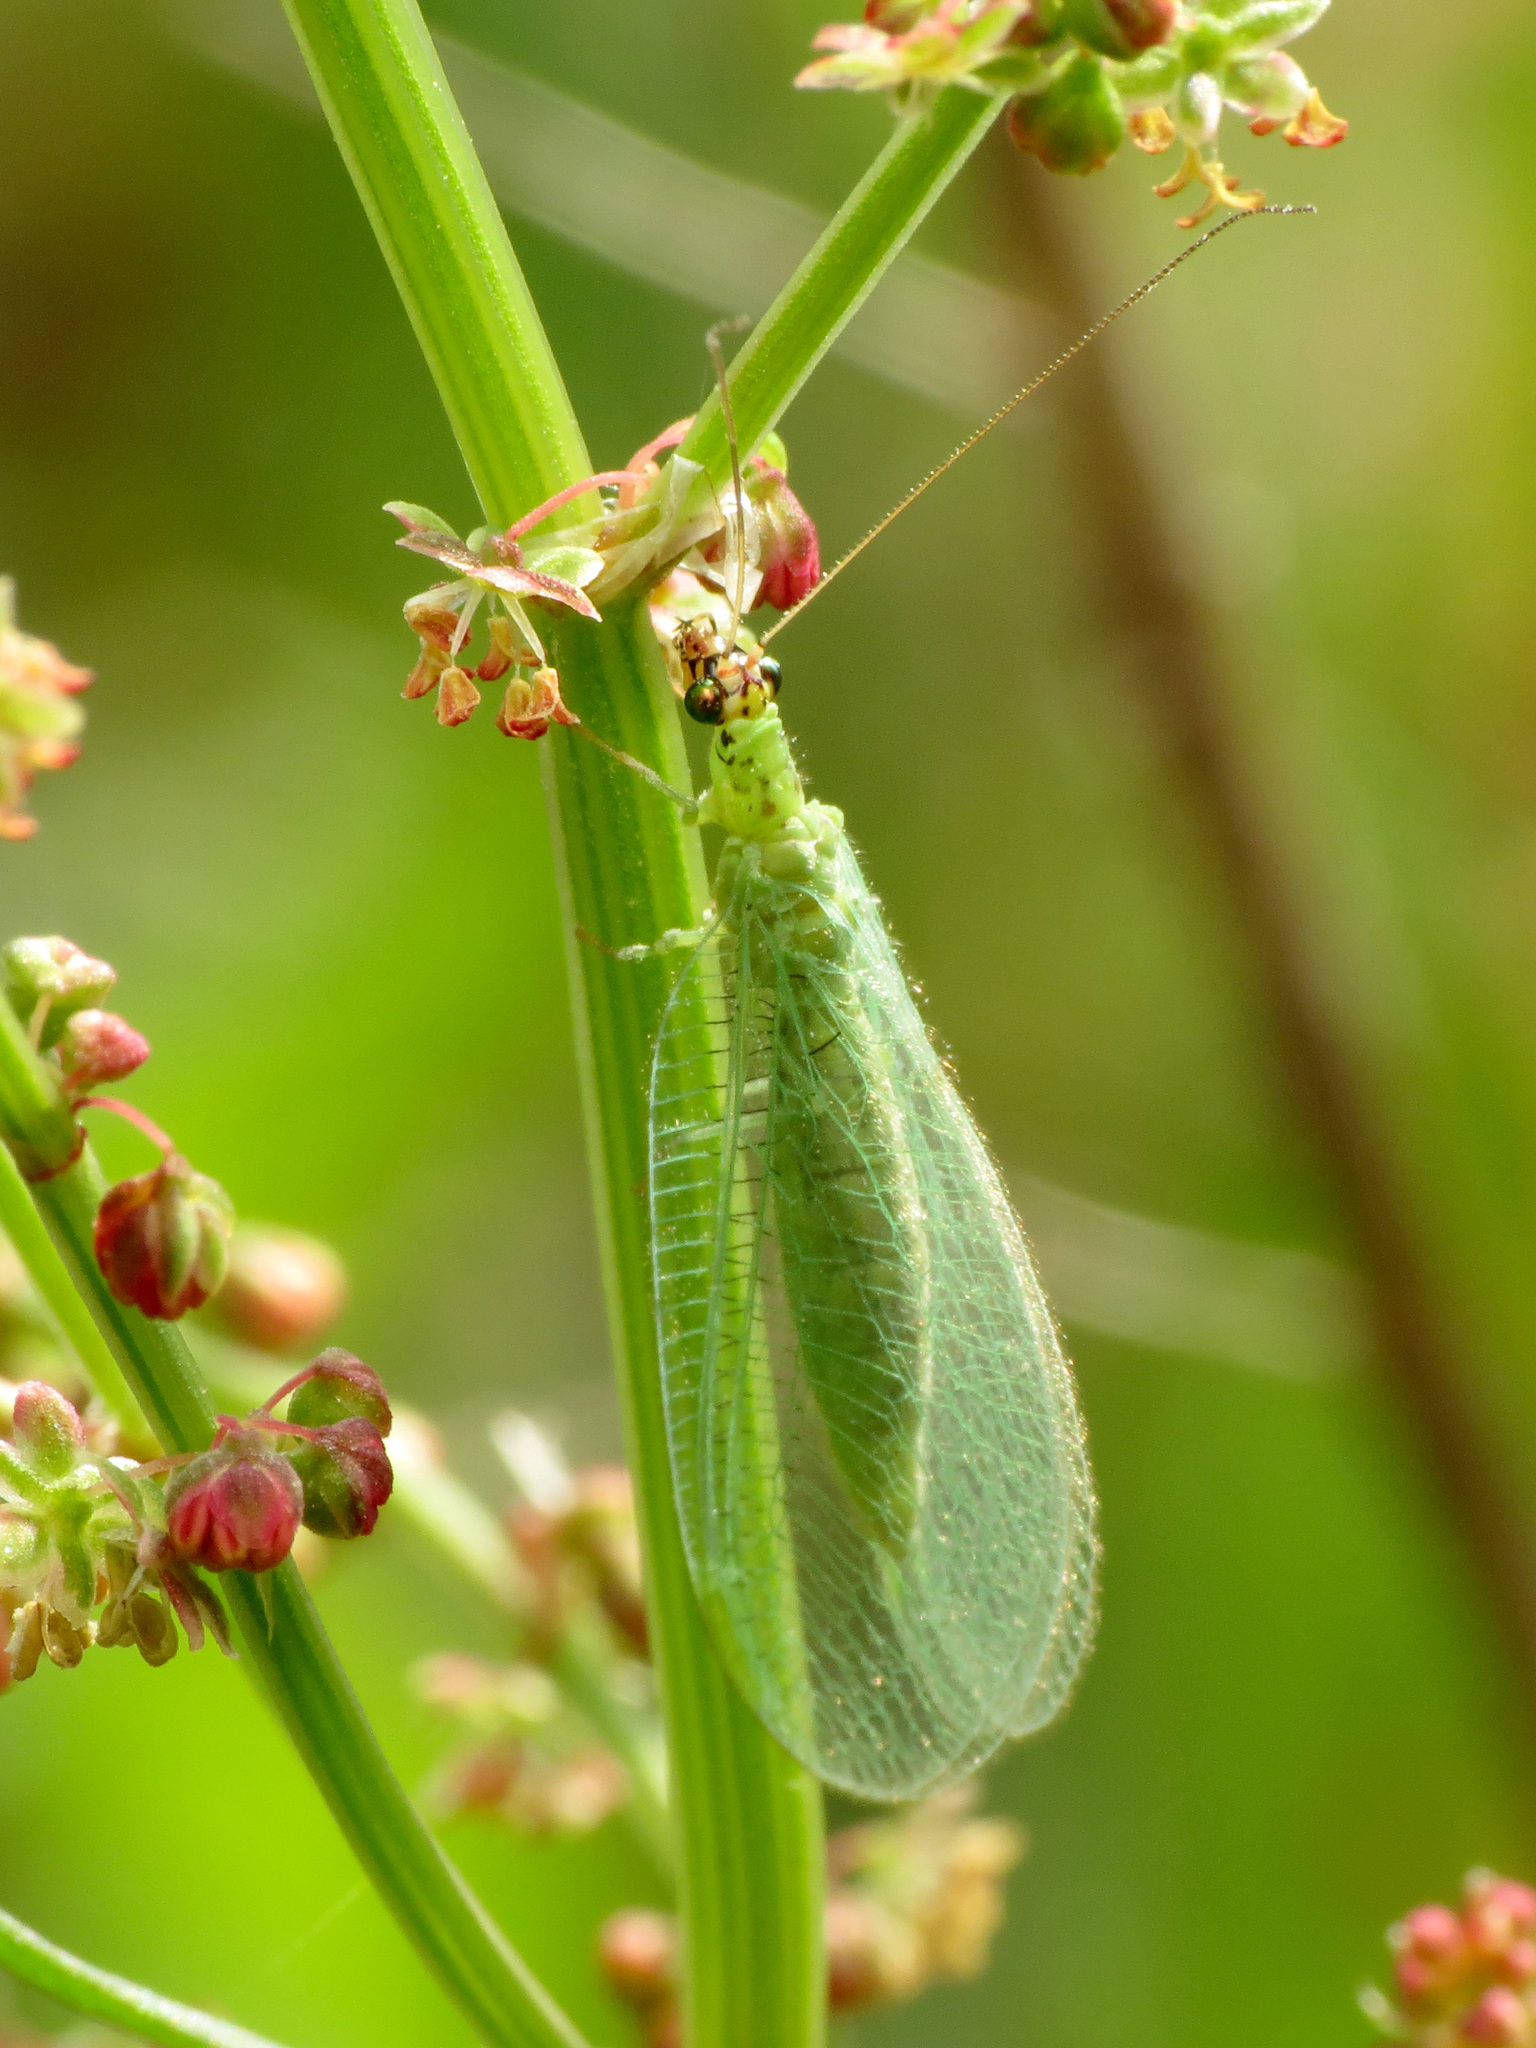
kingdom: Animalia
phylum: Arthropoda
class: Insecta
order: Neuroptera
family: Chrysopidae
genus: Chrysopa
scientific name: Chrysopa oculata
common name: Golden-eyed lacewing
